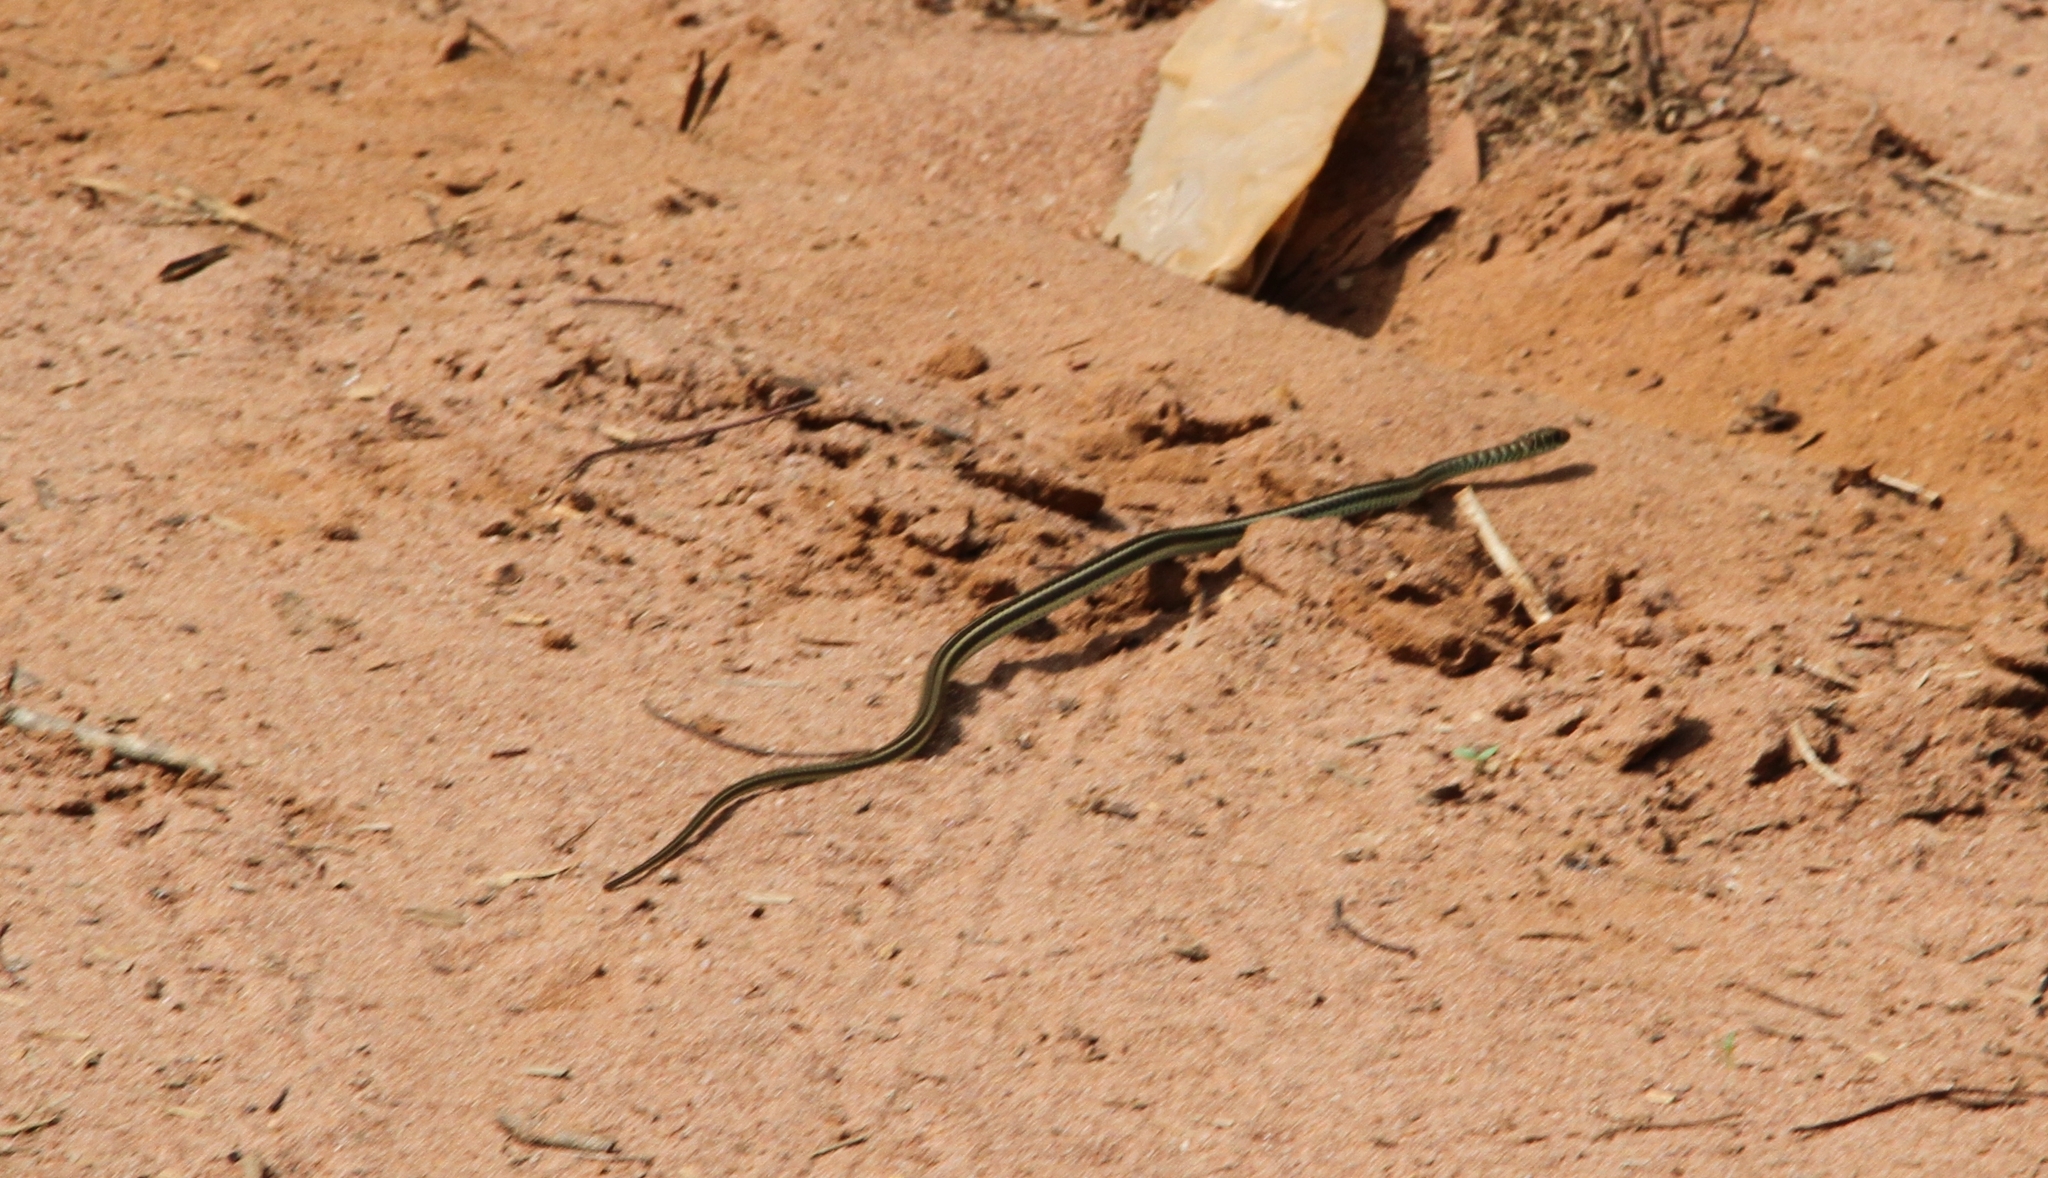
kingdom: Animalia
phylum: Chordata
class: Squamata
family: Psammophiidae
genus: Psammophis
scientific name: Psammophis lineatus
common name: Gray grass snake
